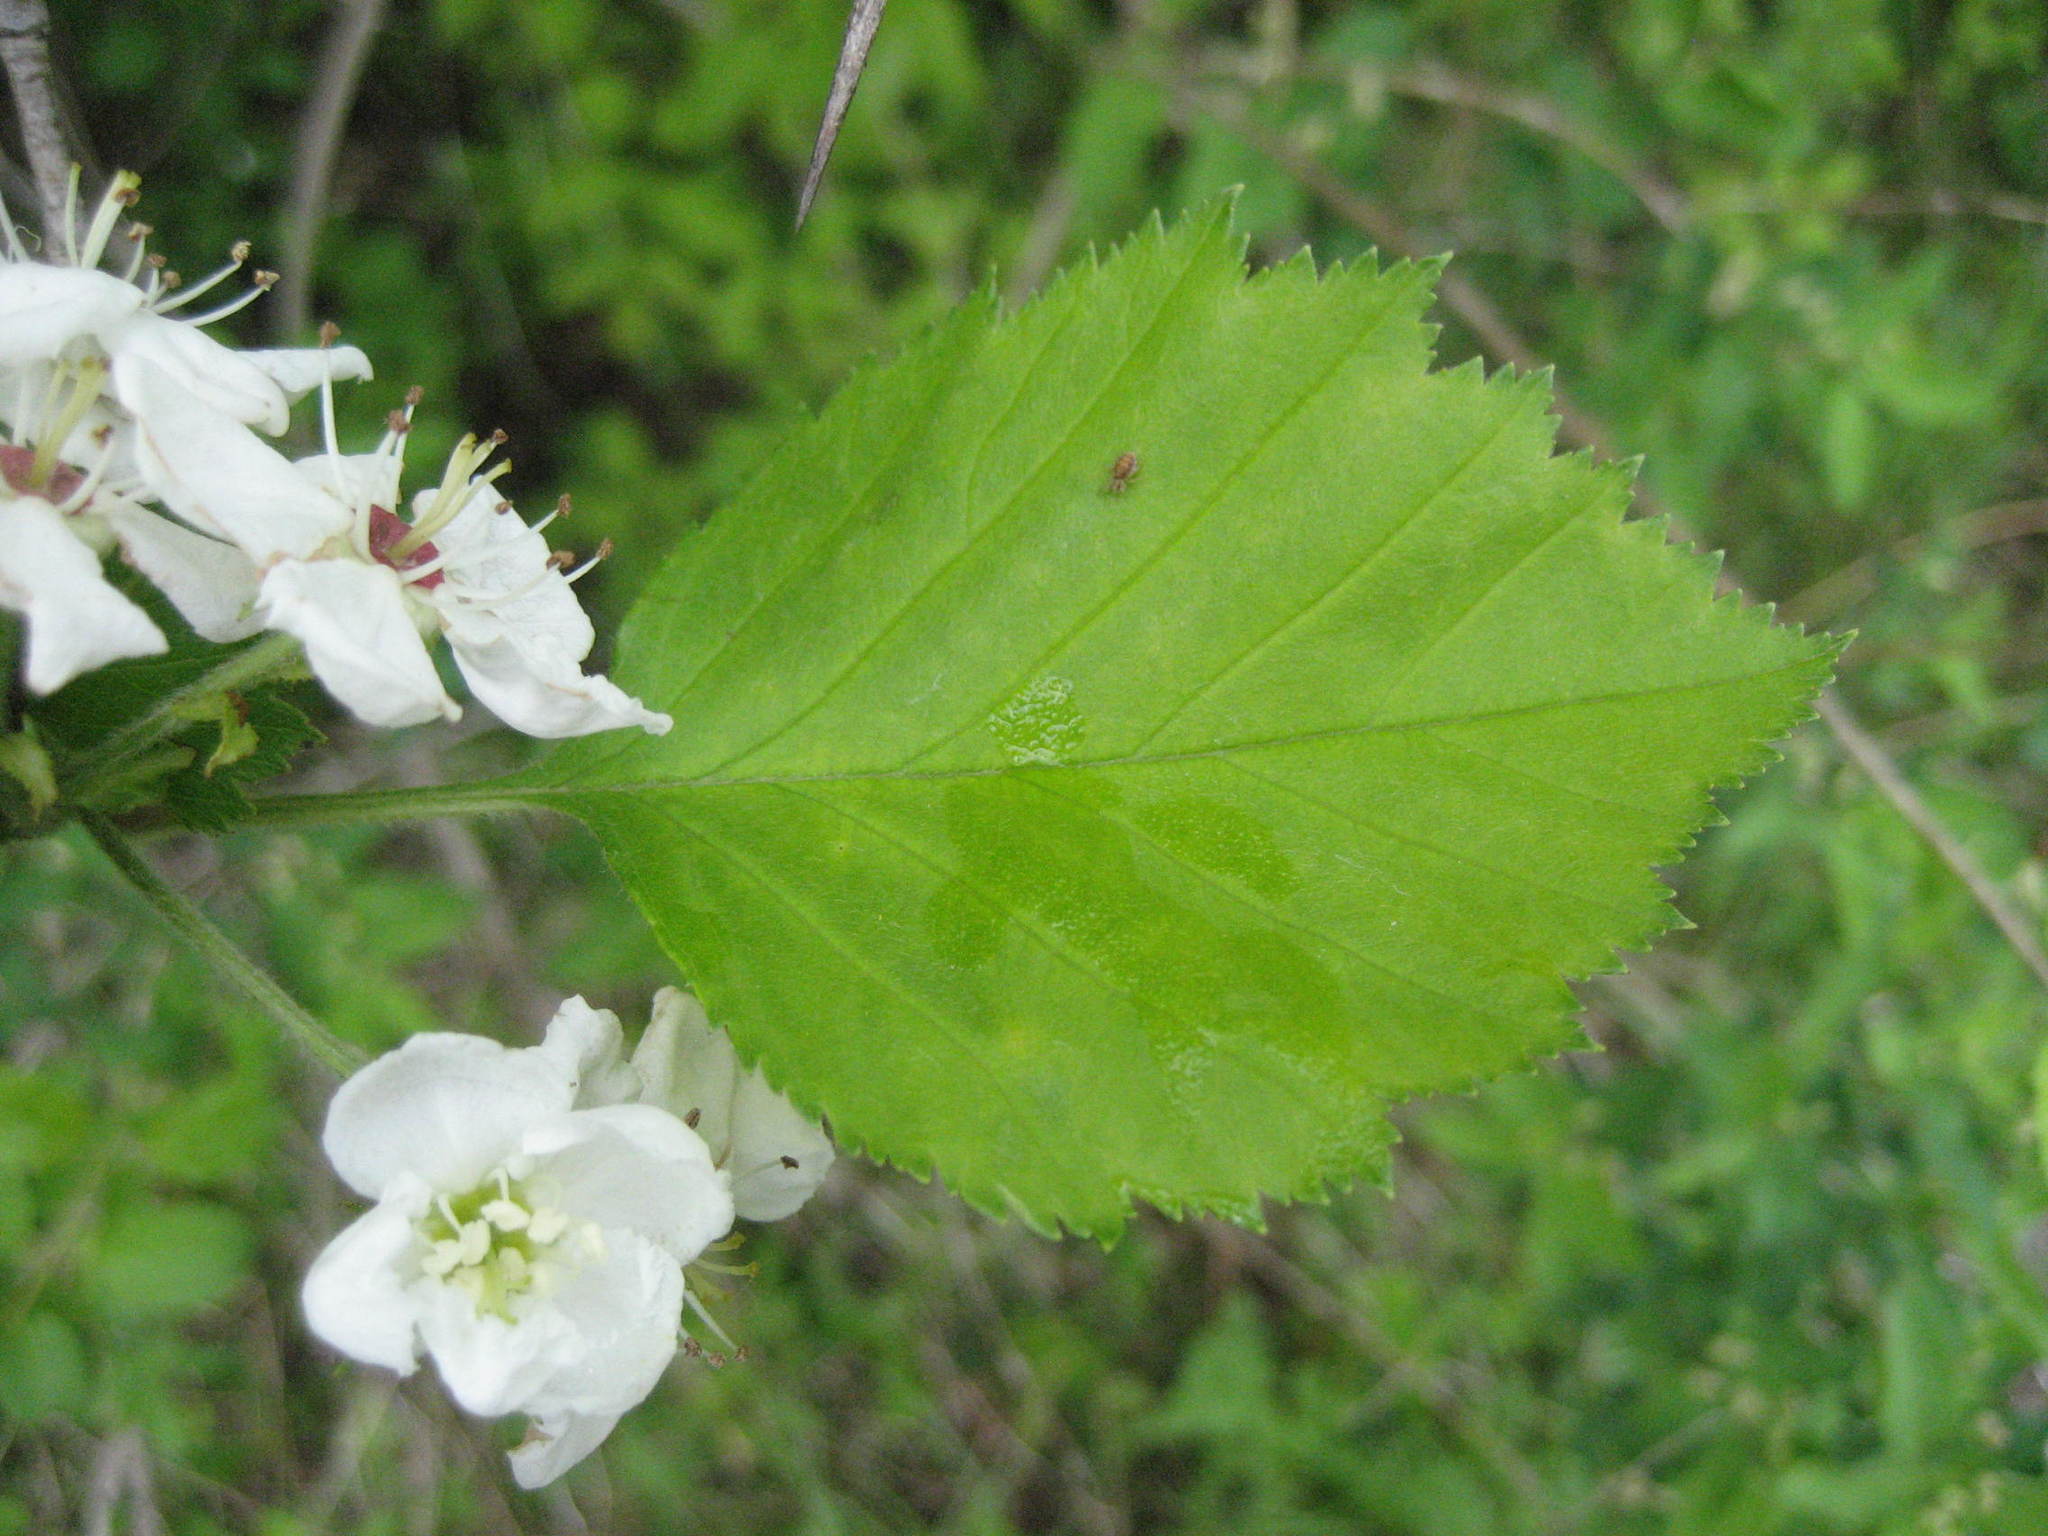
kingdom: Plantae
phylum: Tracheophyta
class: Magnoliopsida
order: Rosales
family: Rosaceae
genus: Crataegus
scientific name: Crataegus submollis
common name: Hairy cockspurthorn
